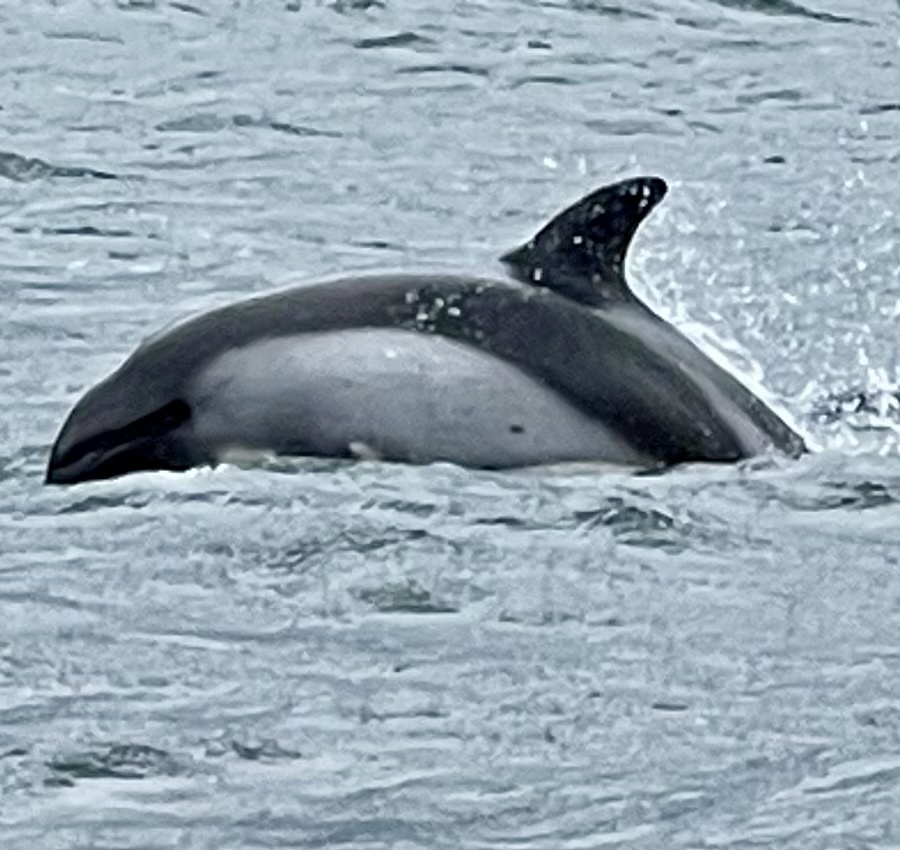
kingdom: Animalia
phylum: Chordata
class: Mammalia
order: Cetacea
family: Delphinidae
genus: Lagenorhynchus
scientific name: Lagenorhynchus australis
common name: Peale's dolphin
